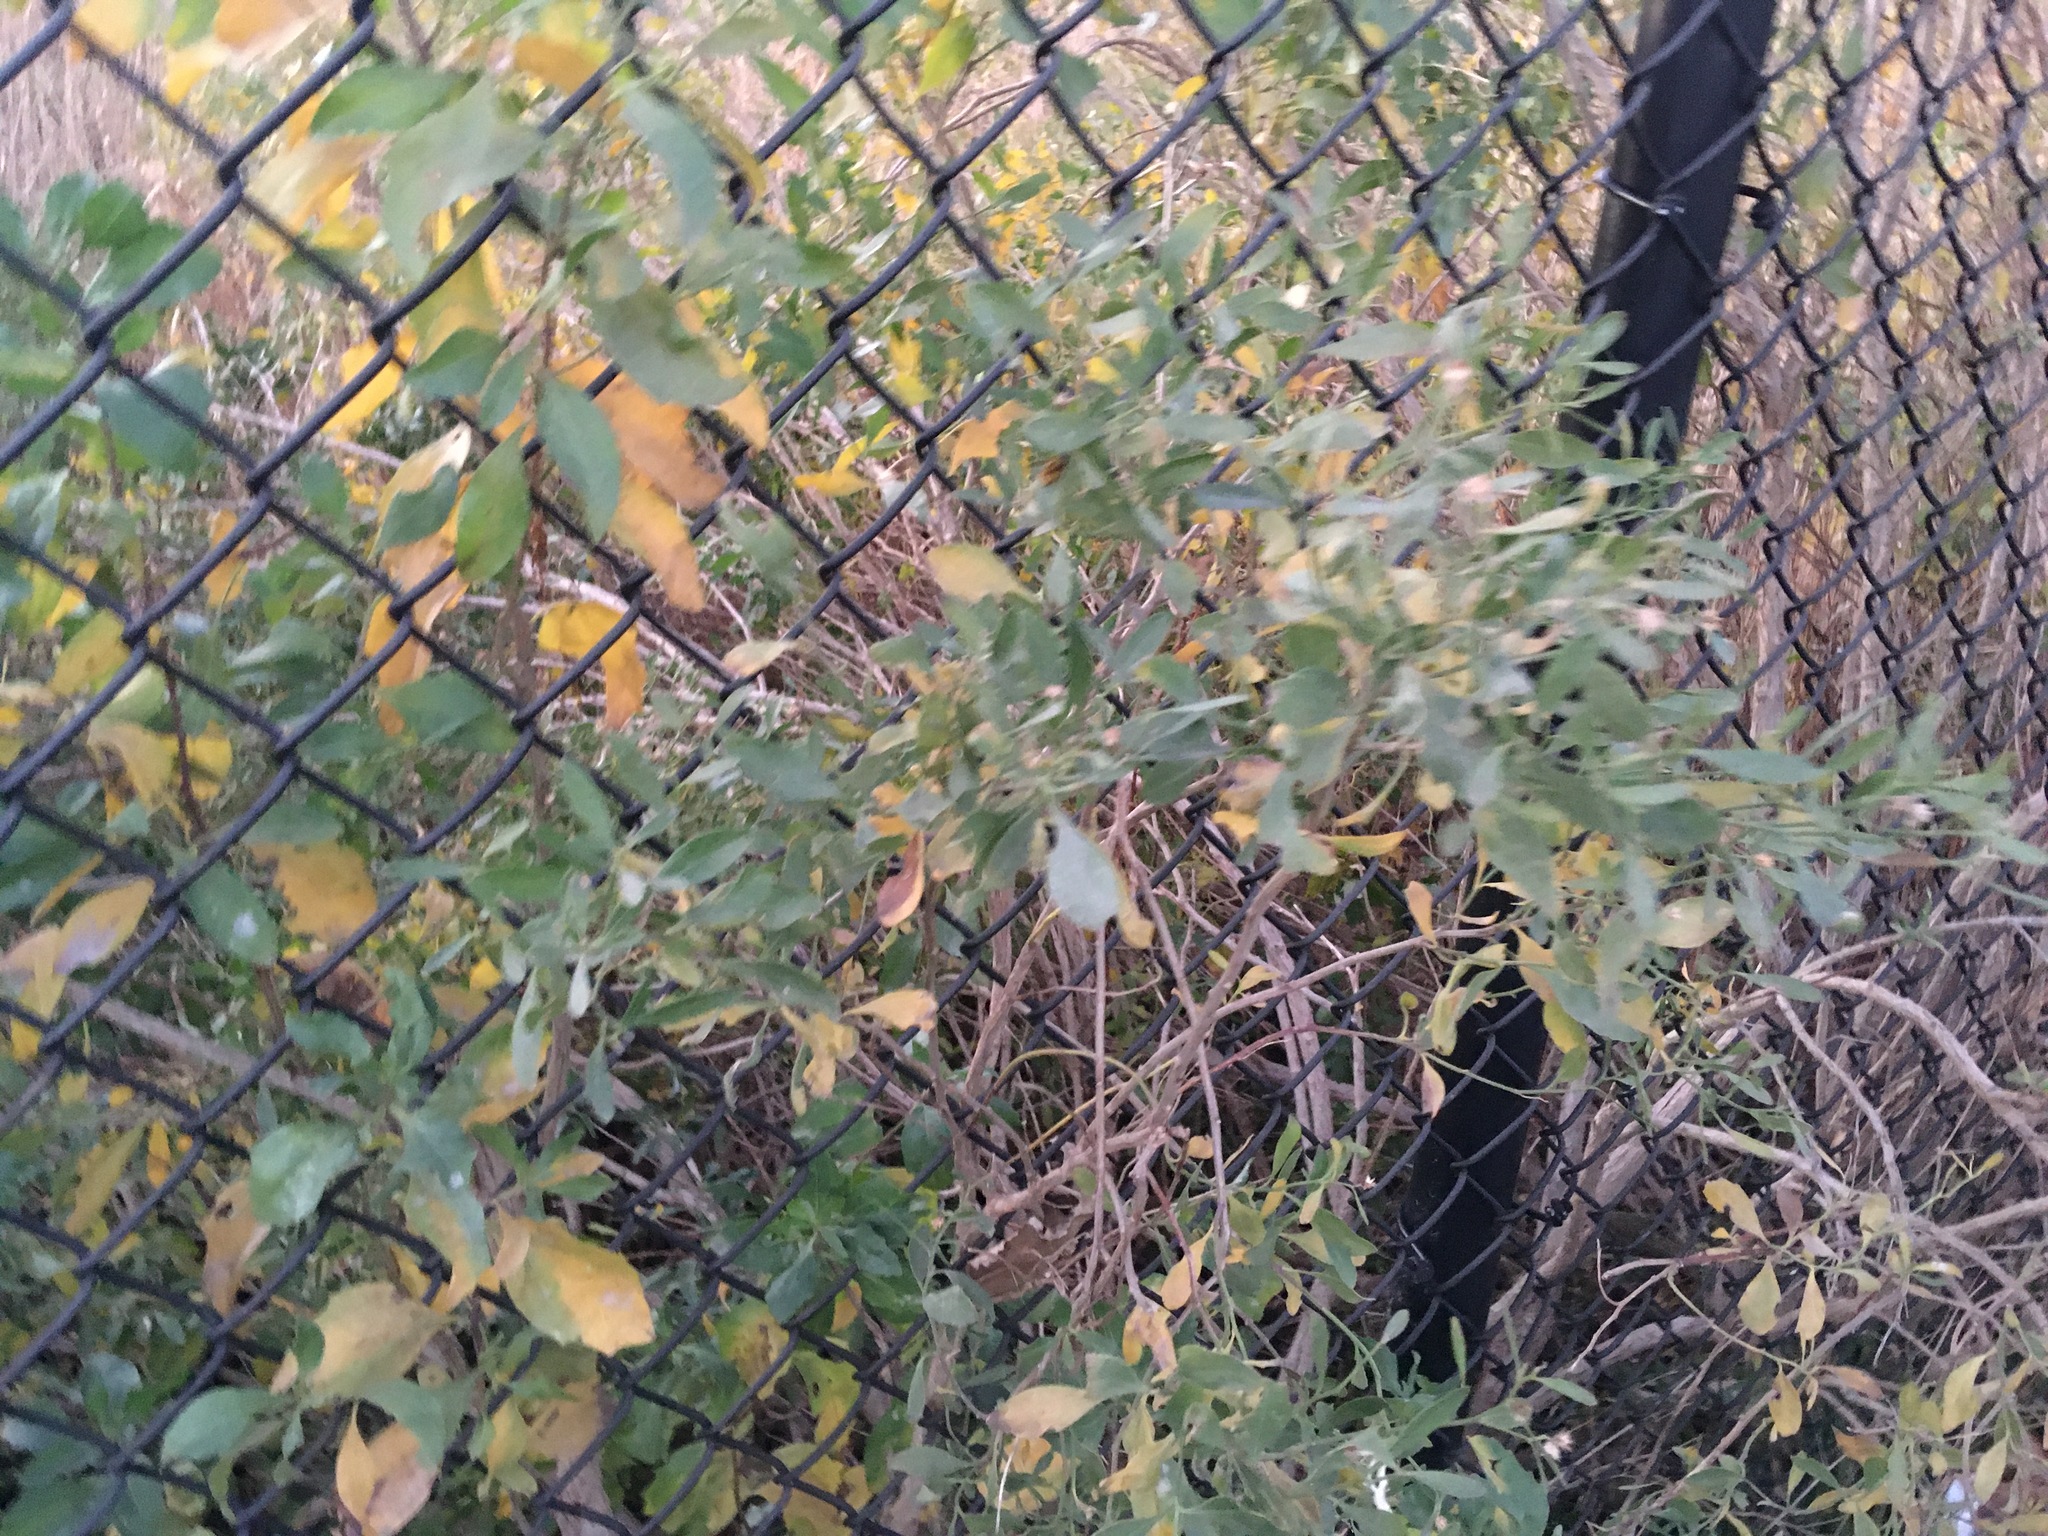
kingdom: Plantae
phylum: Tracheophyta
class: Magnoliopsida
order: Asterales
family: Asteraceae
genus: Baccharis
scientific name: Baccharis halimifolia
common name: Eastern baccharis
